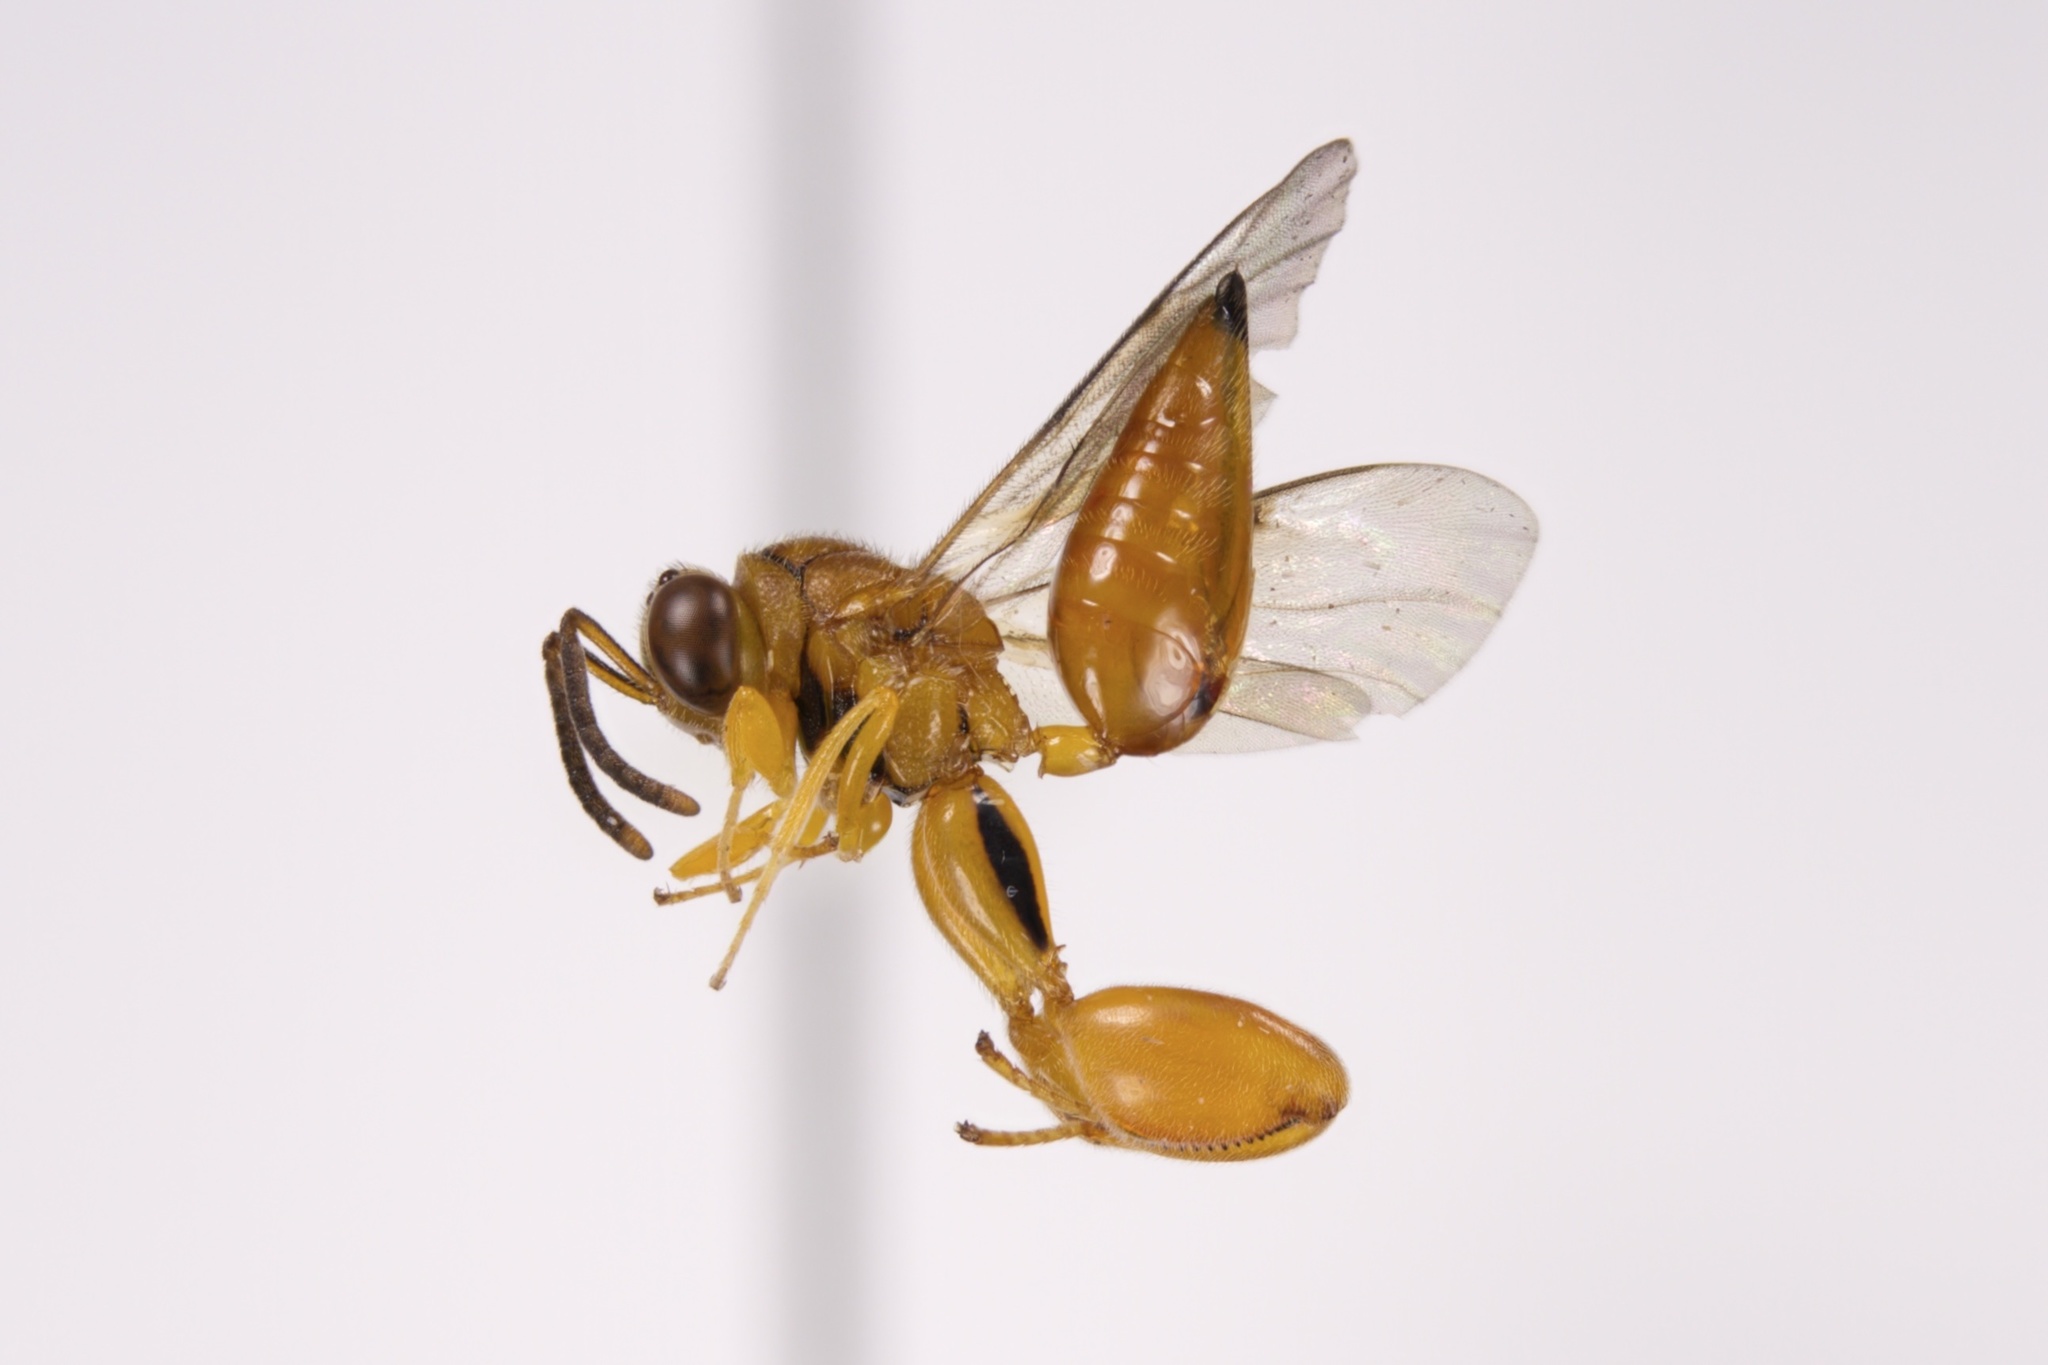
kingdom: Animalia
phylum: Arthropoda
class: Insecta
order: Hymenoptera
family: Chalcididae
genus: Conura
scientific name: Conura
